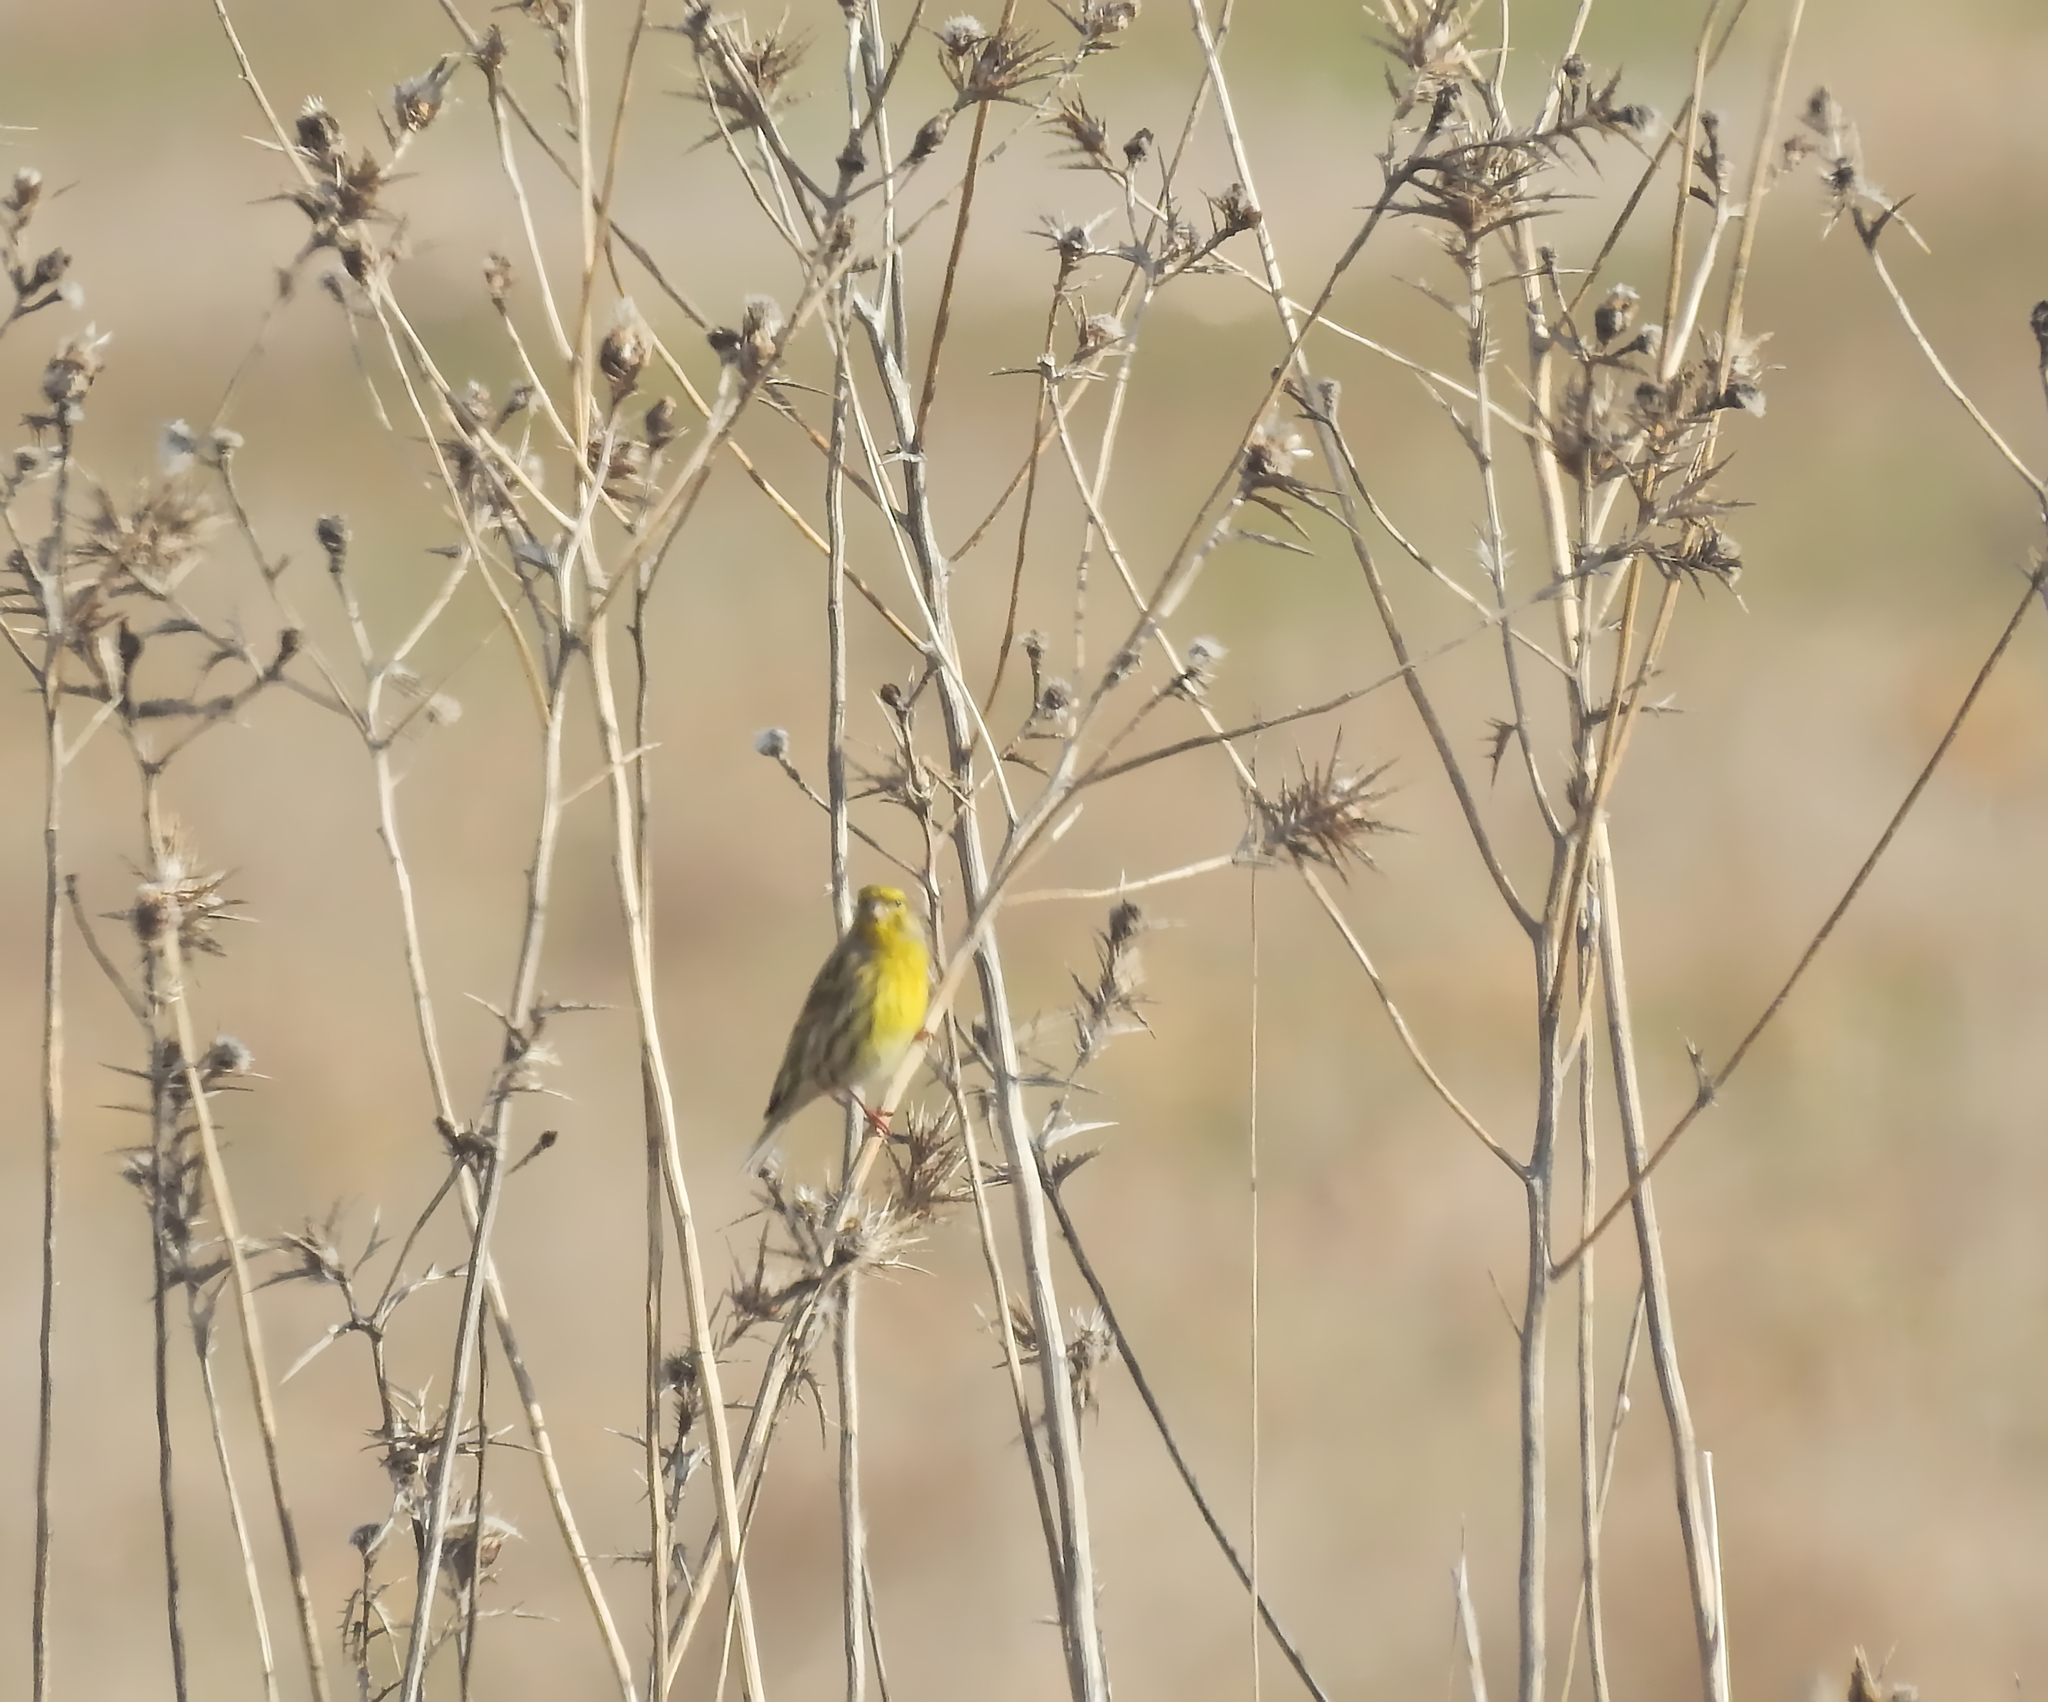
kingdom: Animalia
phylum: Chordata
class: Aves
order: Passeriformes
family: Fringillidae
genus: Serinus
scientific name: Serinus serinus
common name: European serin
